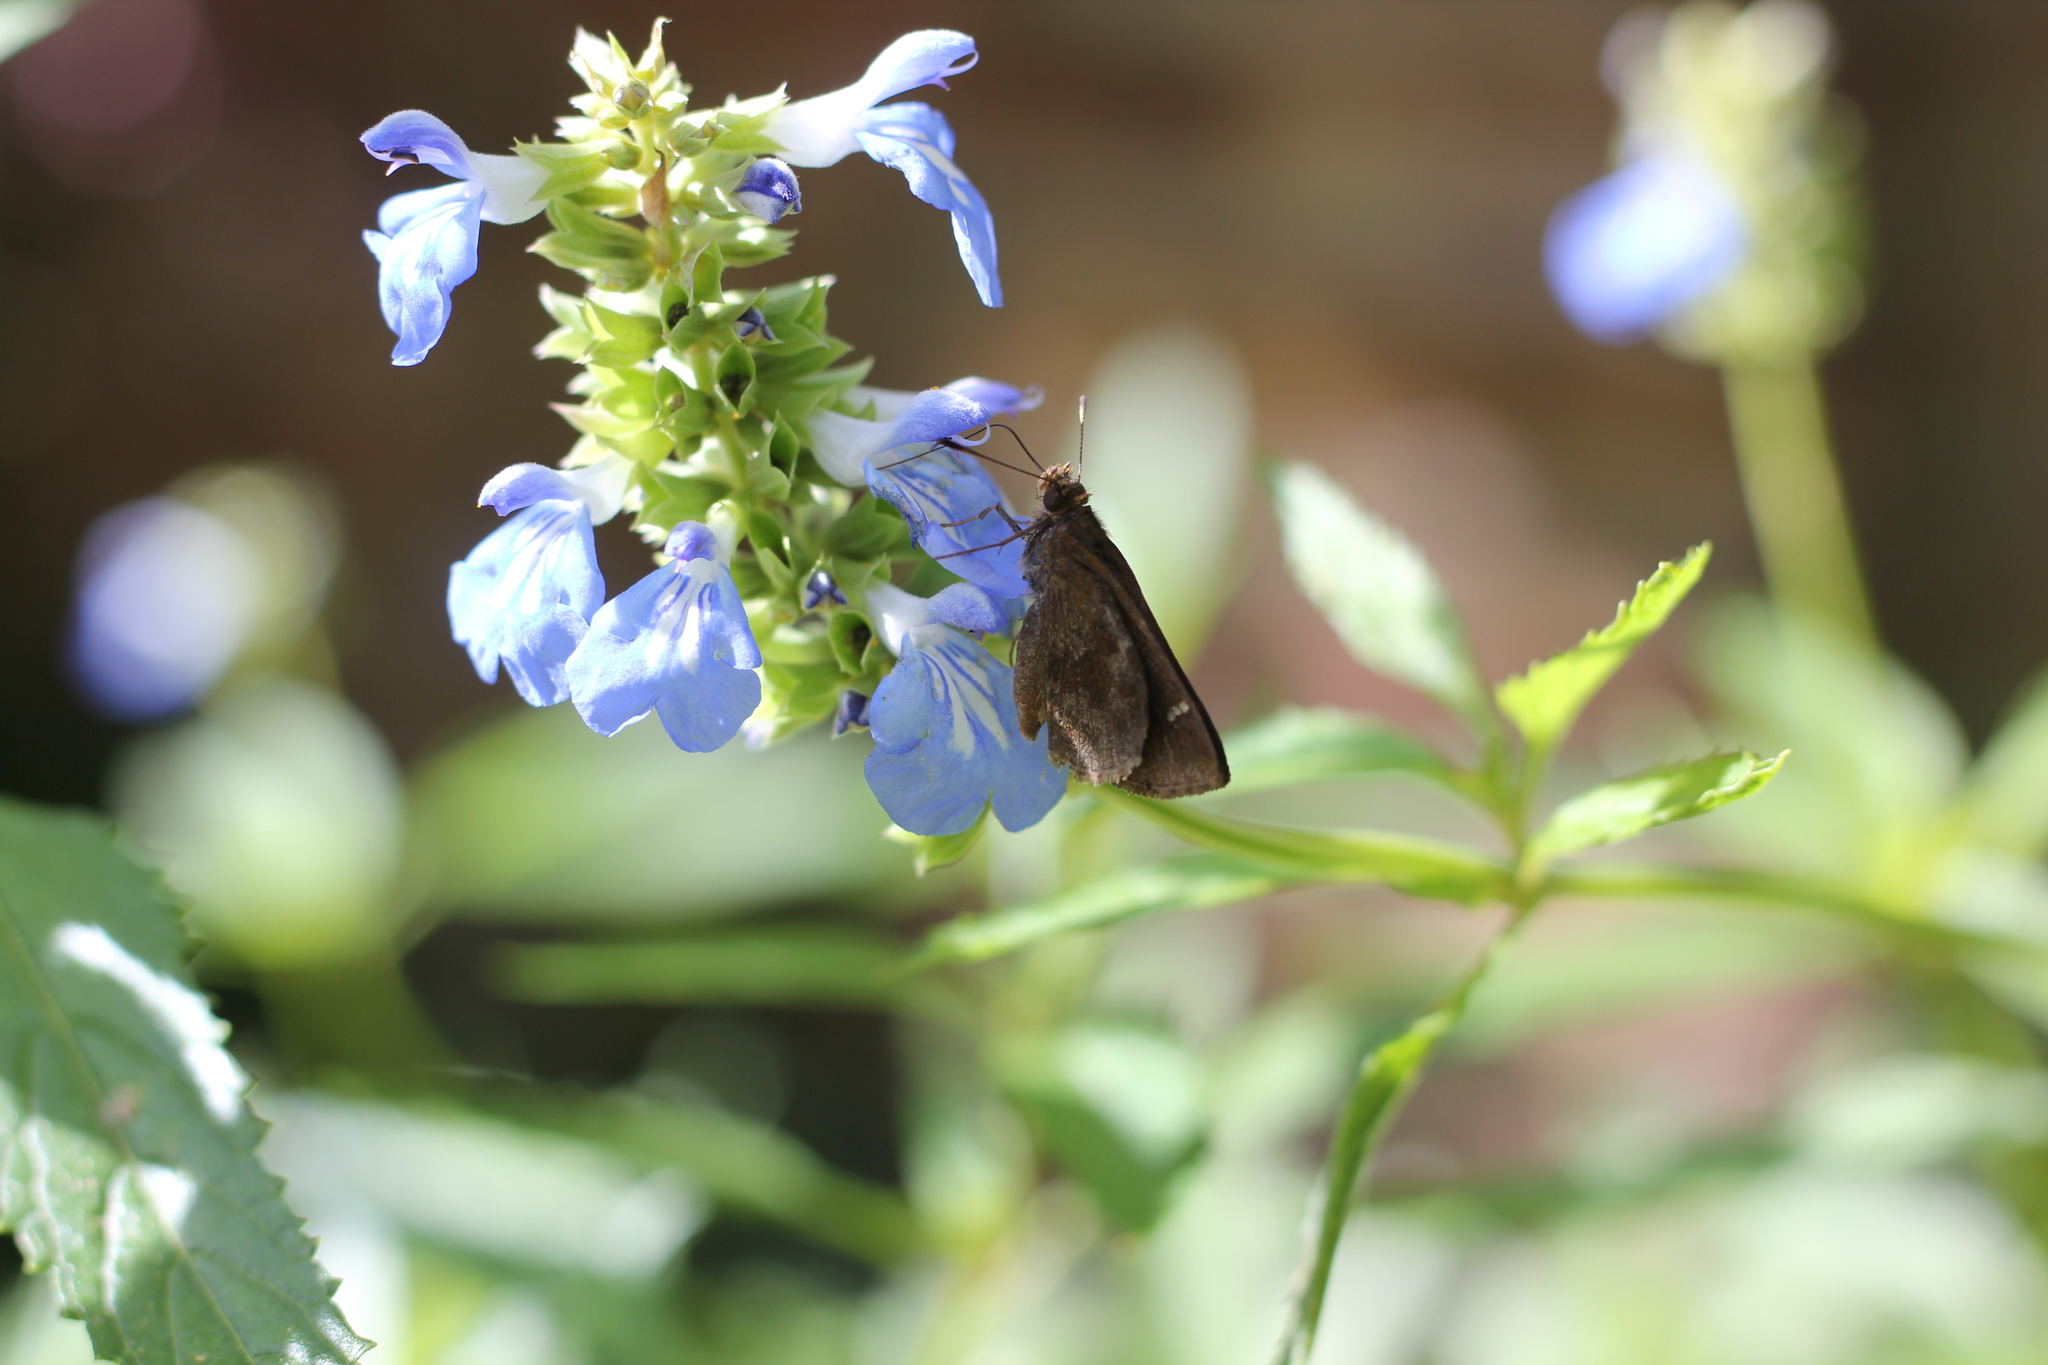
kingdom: Animalia
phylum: Arthropoda
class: Insecta
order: Lepidoptera
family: Hesperiidae
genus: Cymaenes
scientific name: Cymaenes
